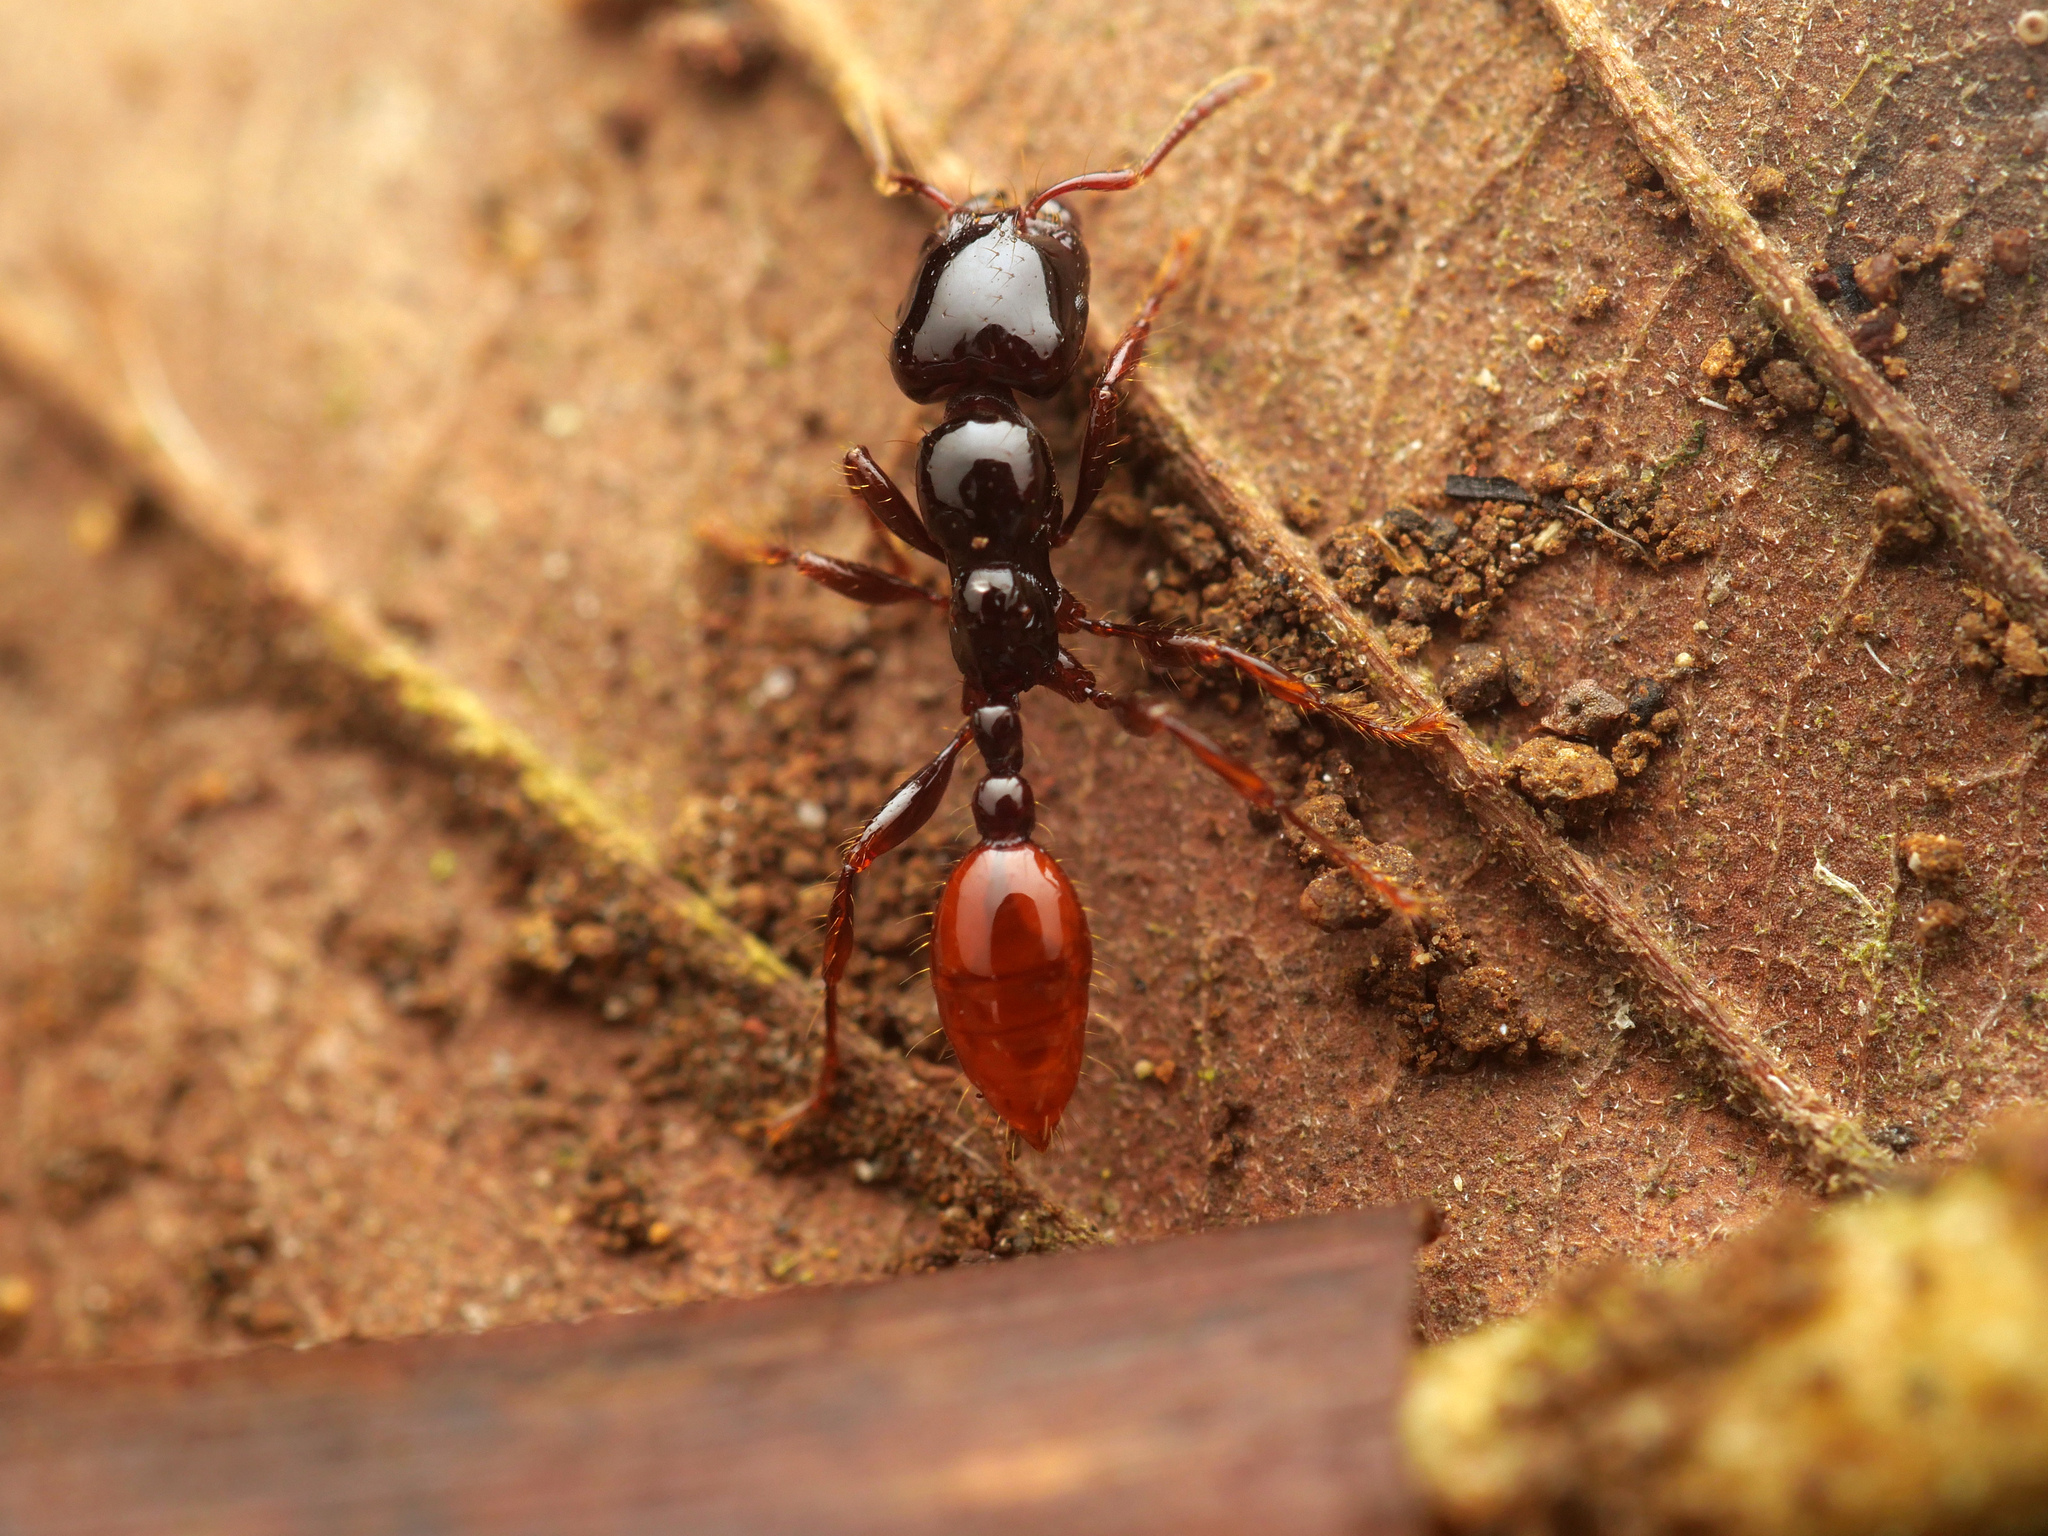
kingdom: Animalia
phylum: Arthropoda
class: Insecta
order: Hymenoptera
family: Formicidae
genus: Vollenhovia
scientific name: Vollenhovia rufiventris
